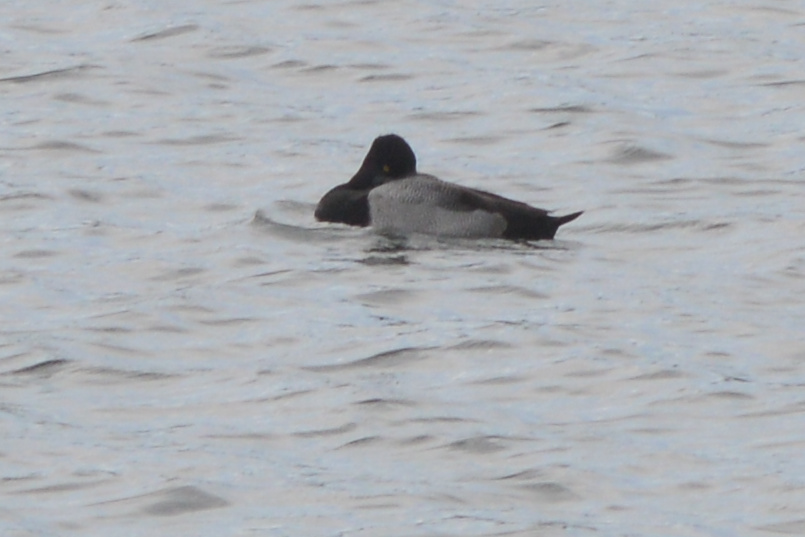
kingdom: Animalia
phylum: Chordata
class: Aves
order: Anseriformes
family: Anatidae
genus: Aythya
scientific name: Aythya
